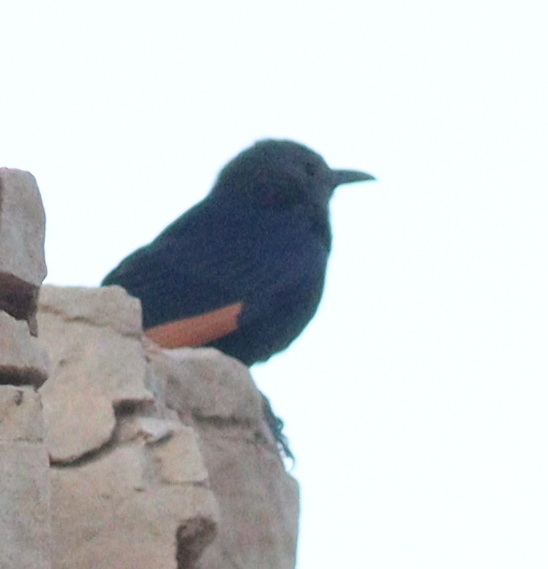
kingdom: Animalia
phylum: Chordata
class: Aves
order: Passeriformes
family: Sturnidae
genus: Onychognathus
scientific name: Onychognathus tristramii
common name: Tristram's starling
